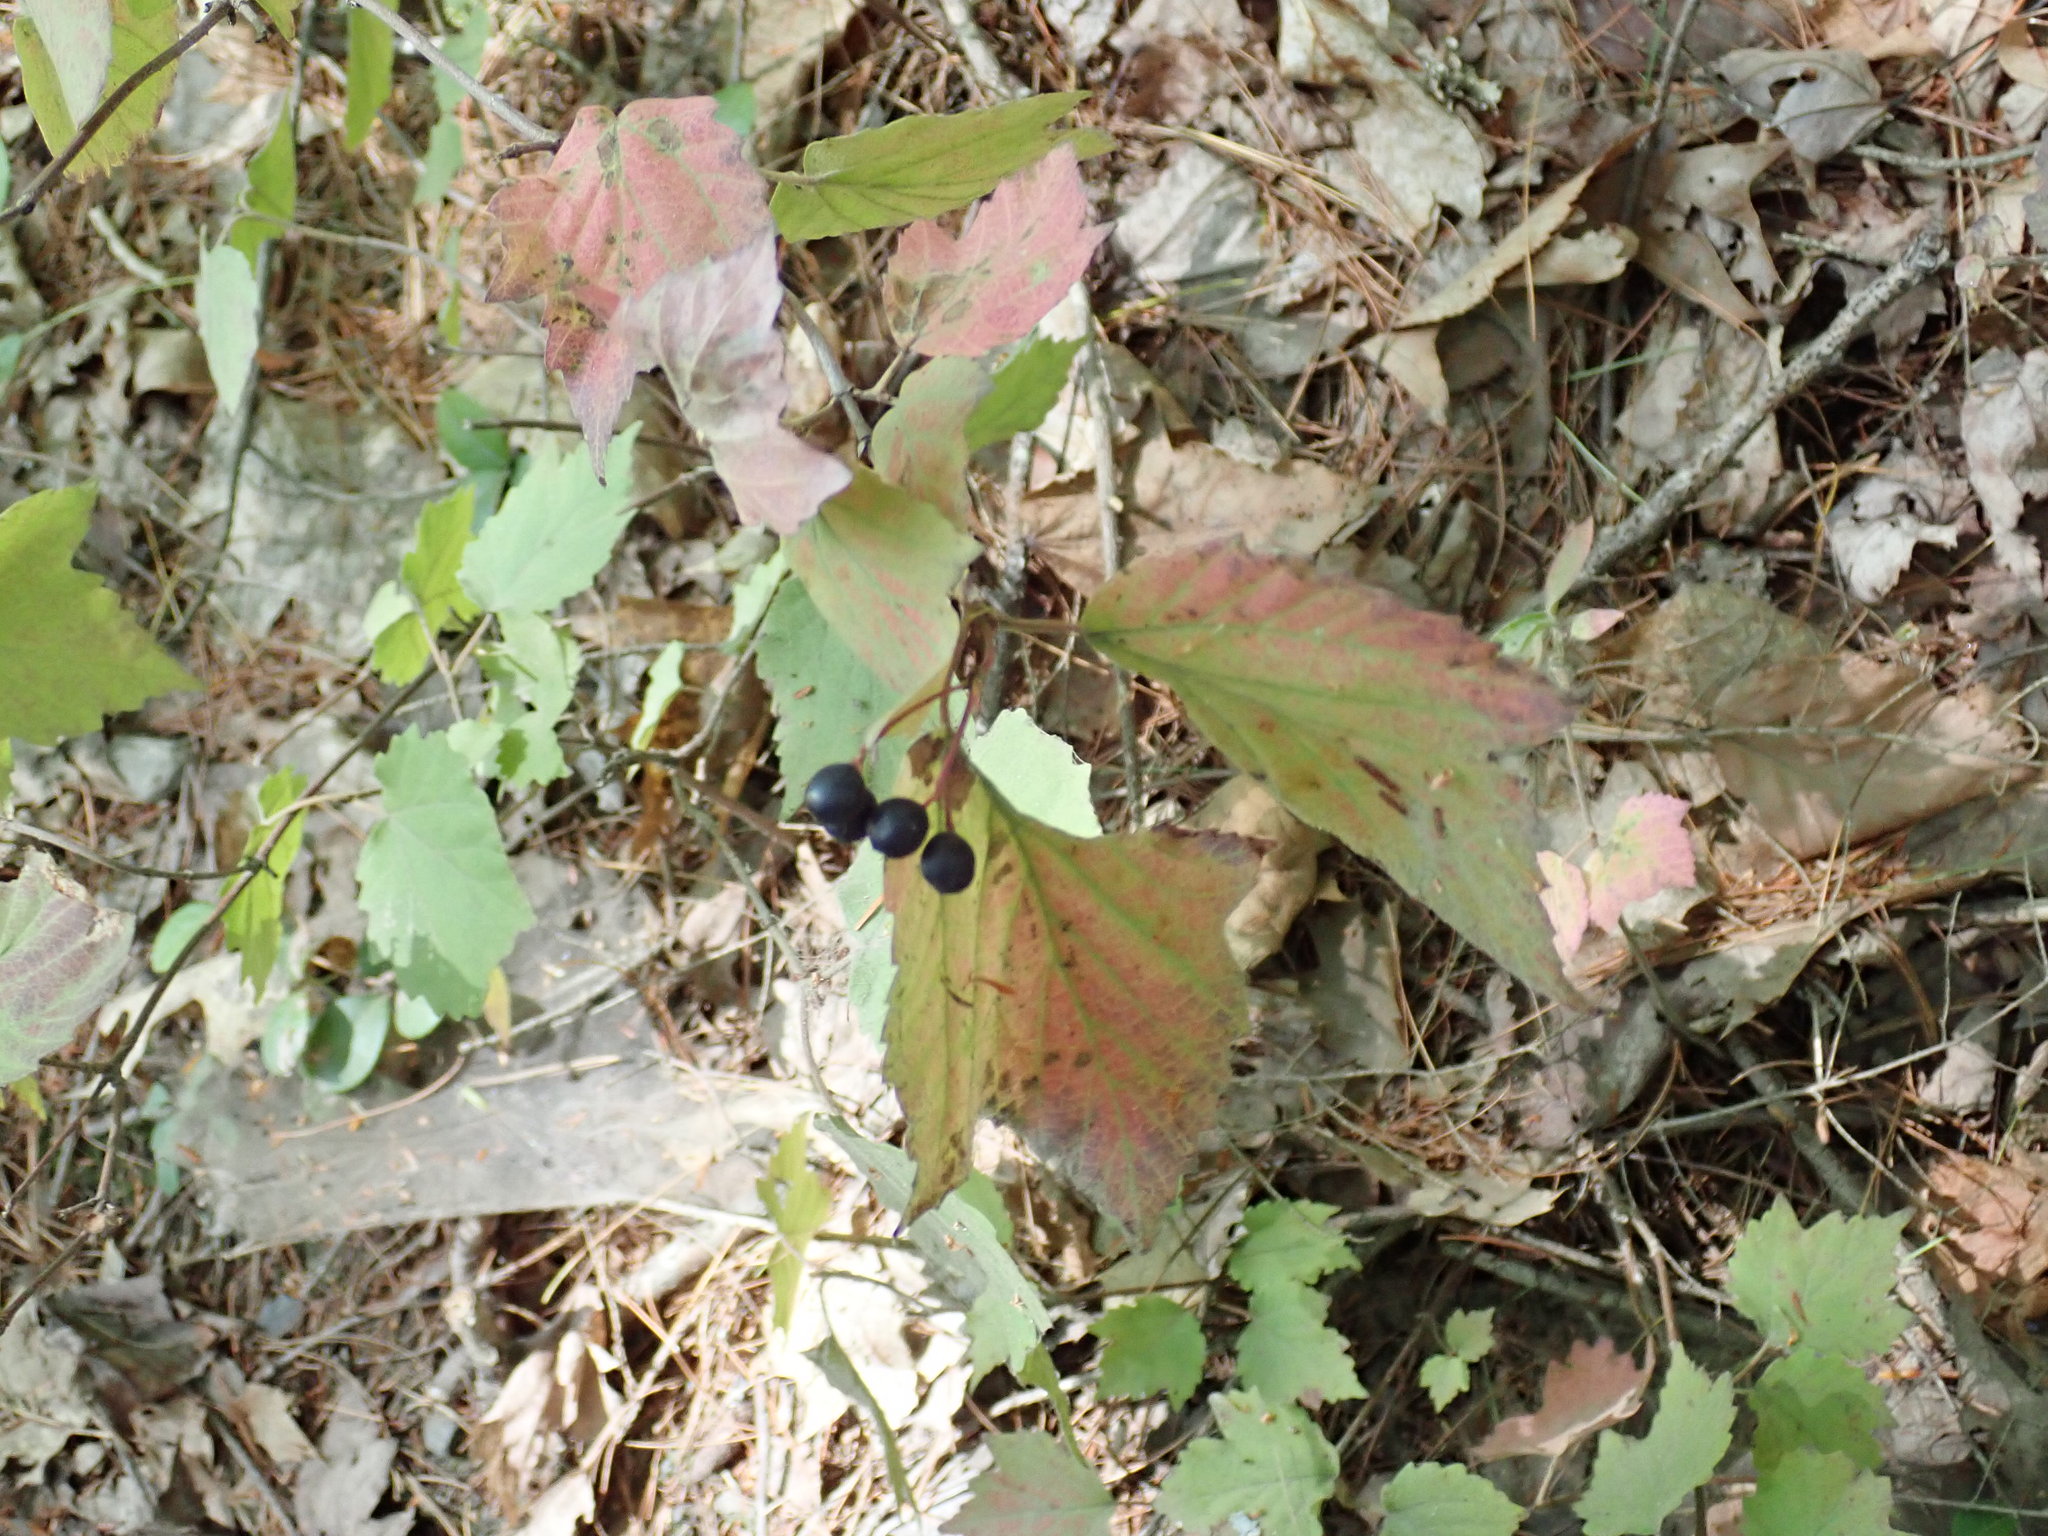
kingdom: Plantae
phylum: Tracheophyta
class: Magnoliopsida
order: Dipsacales
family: Viburnaceae
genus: Viburnum
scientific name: Viburnum acerifolium
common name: Dockmackie
